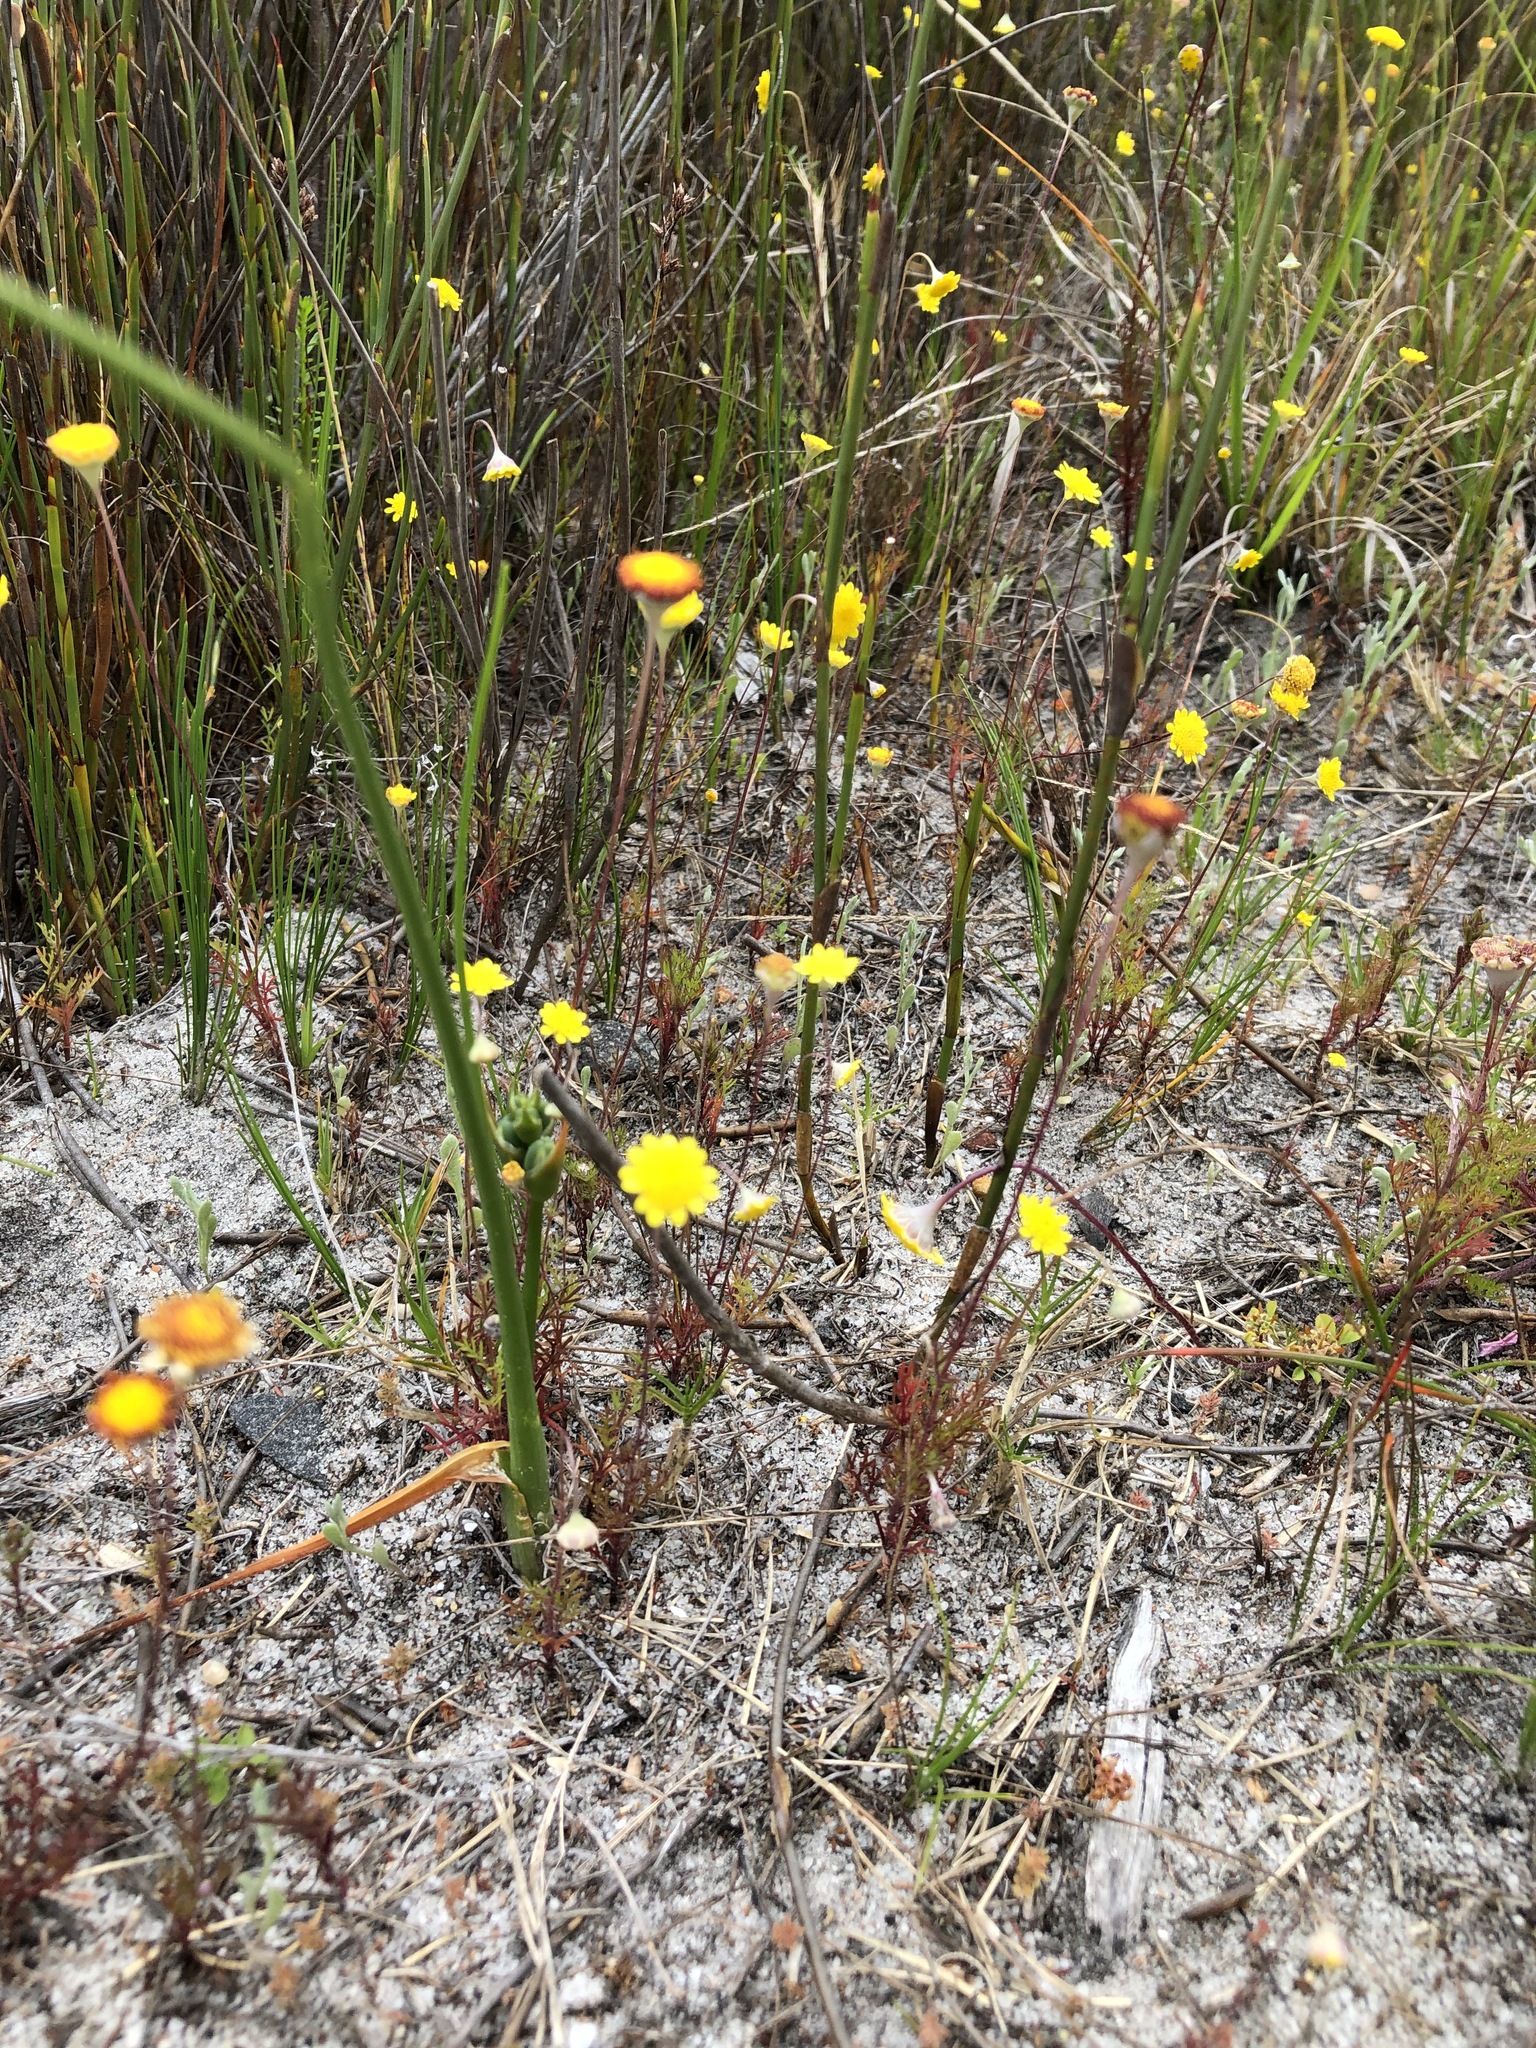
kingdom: Plantae
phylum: Tracheophyta
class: Magnoliopsida
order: Asterales
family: Asteraceae
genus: Cotula
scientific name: Cotula pruinosa
